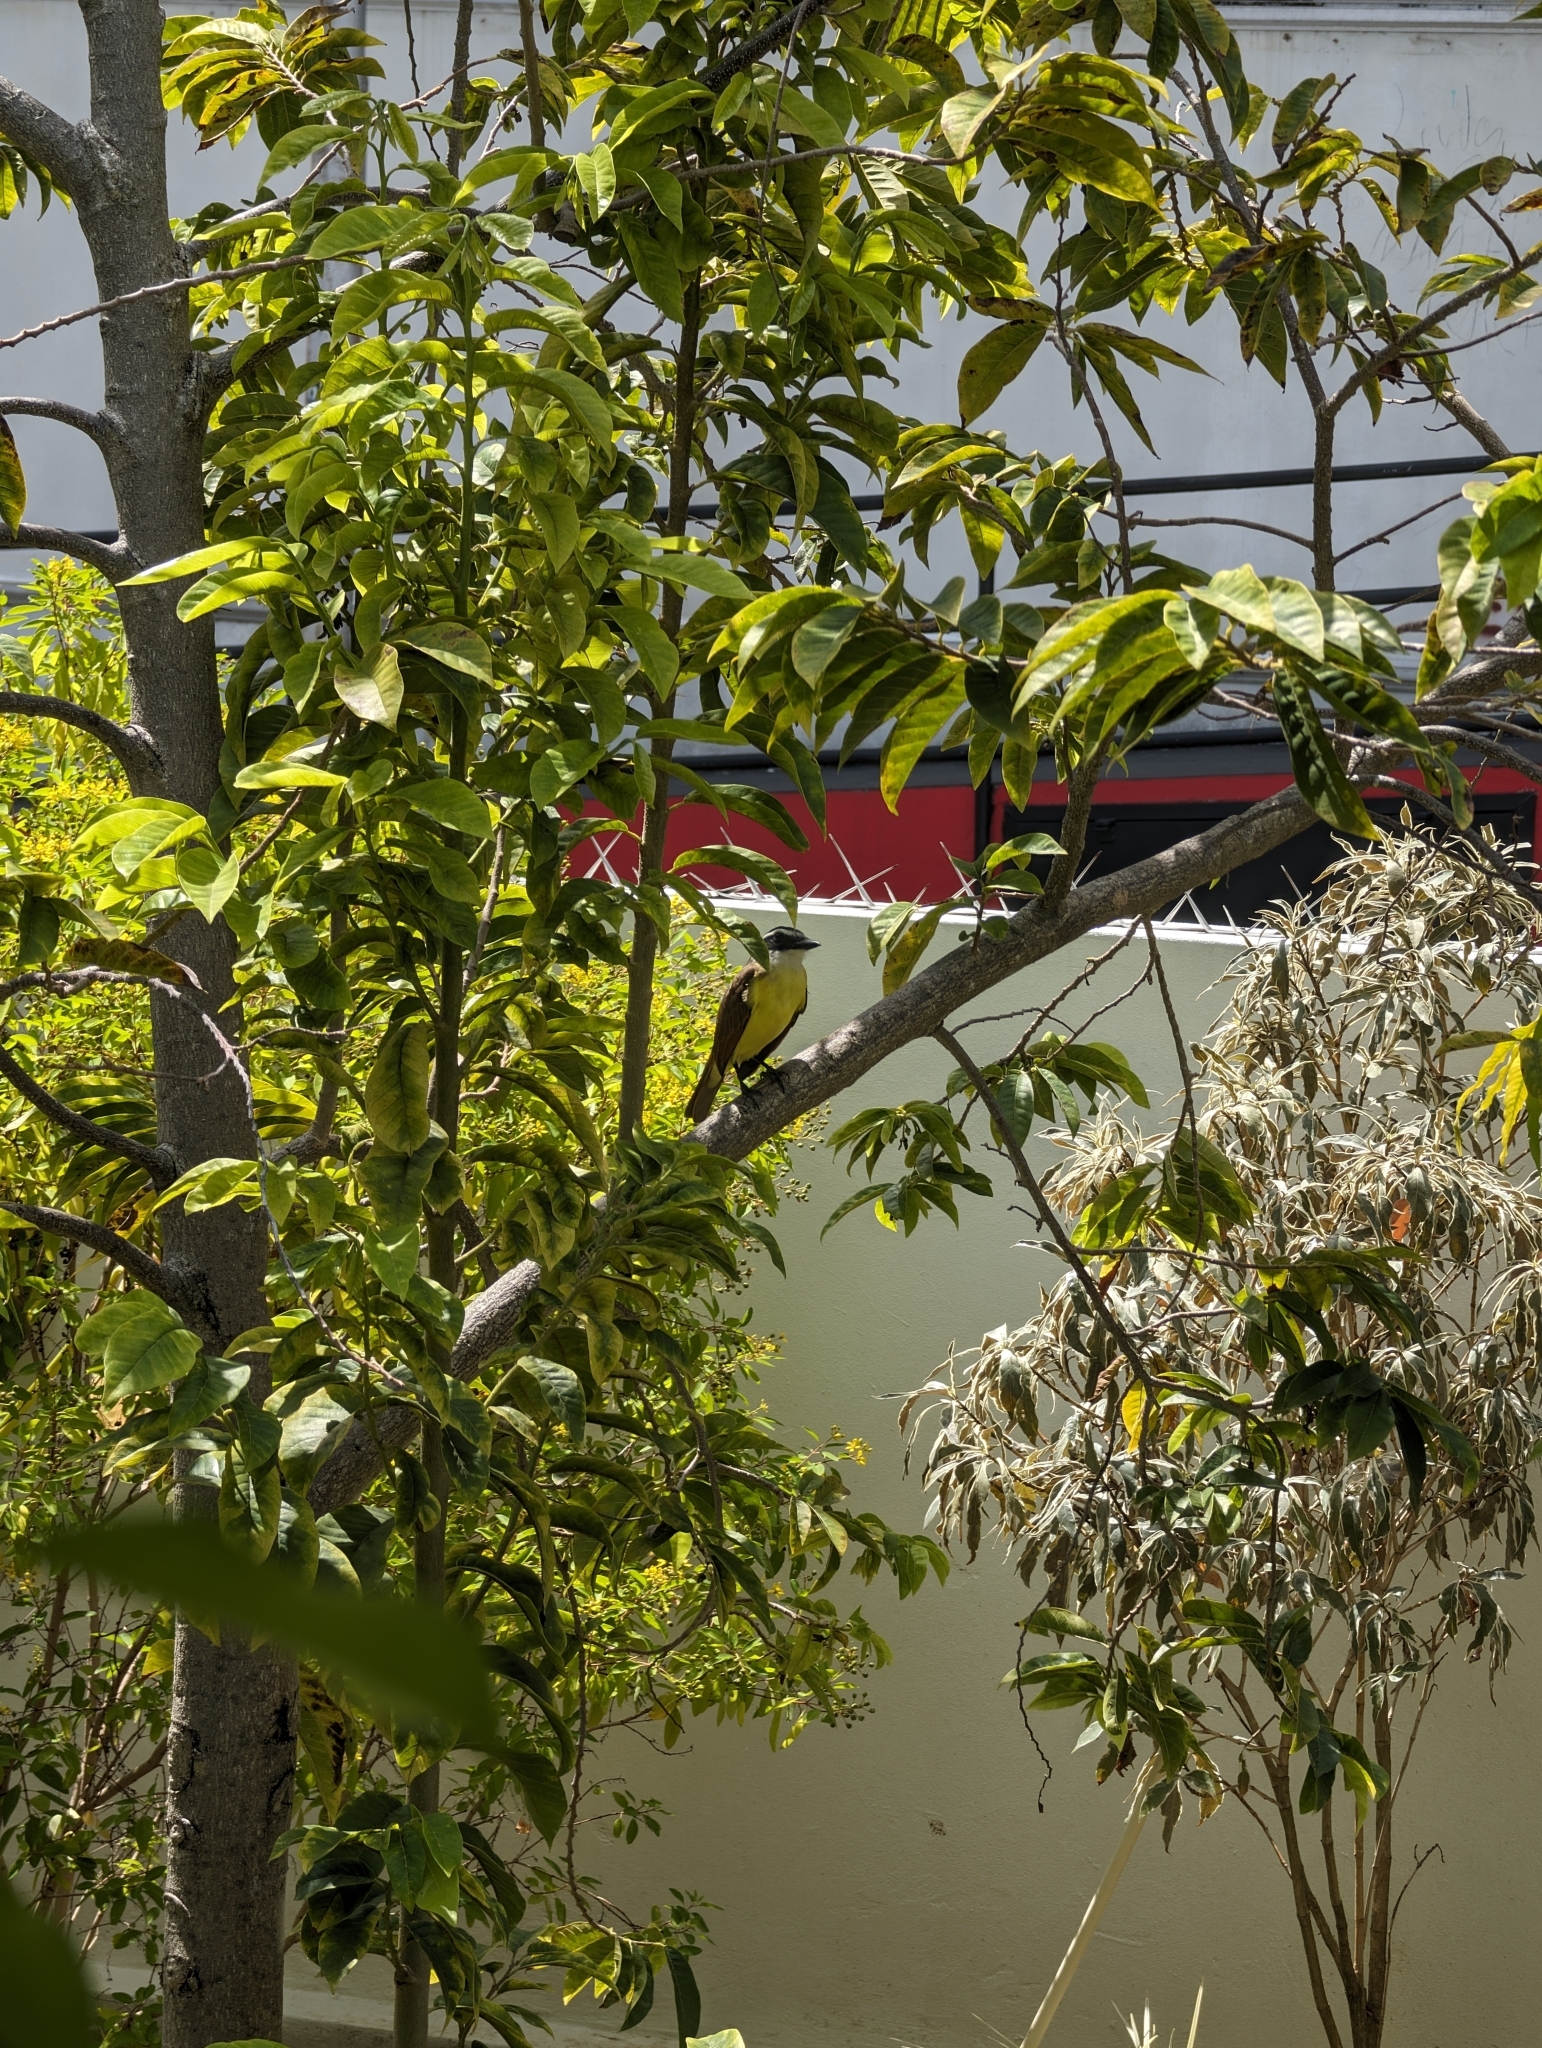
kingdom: Animalia
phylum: Chordata
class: Aves
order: Passeriformes
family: Tyrannidae
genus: Pitangus
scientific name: Pitangus sulphuratus
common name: Great kiskadee
